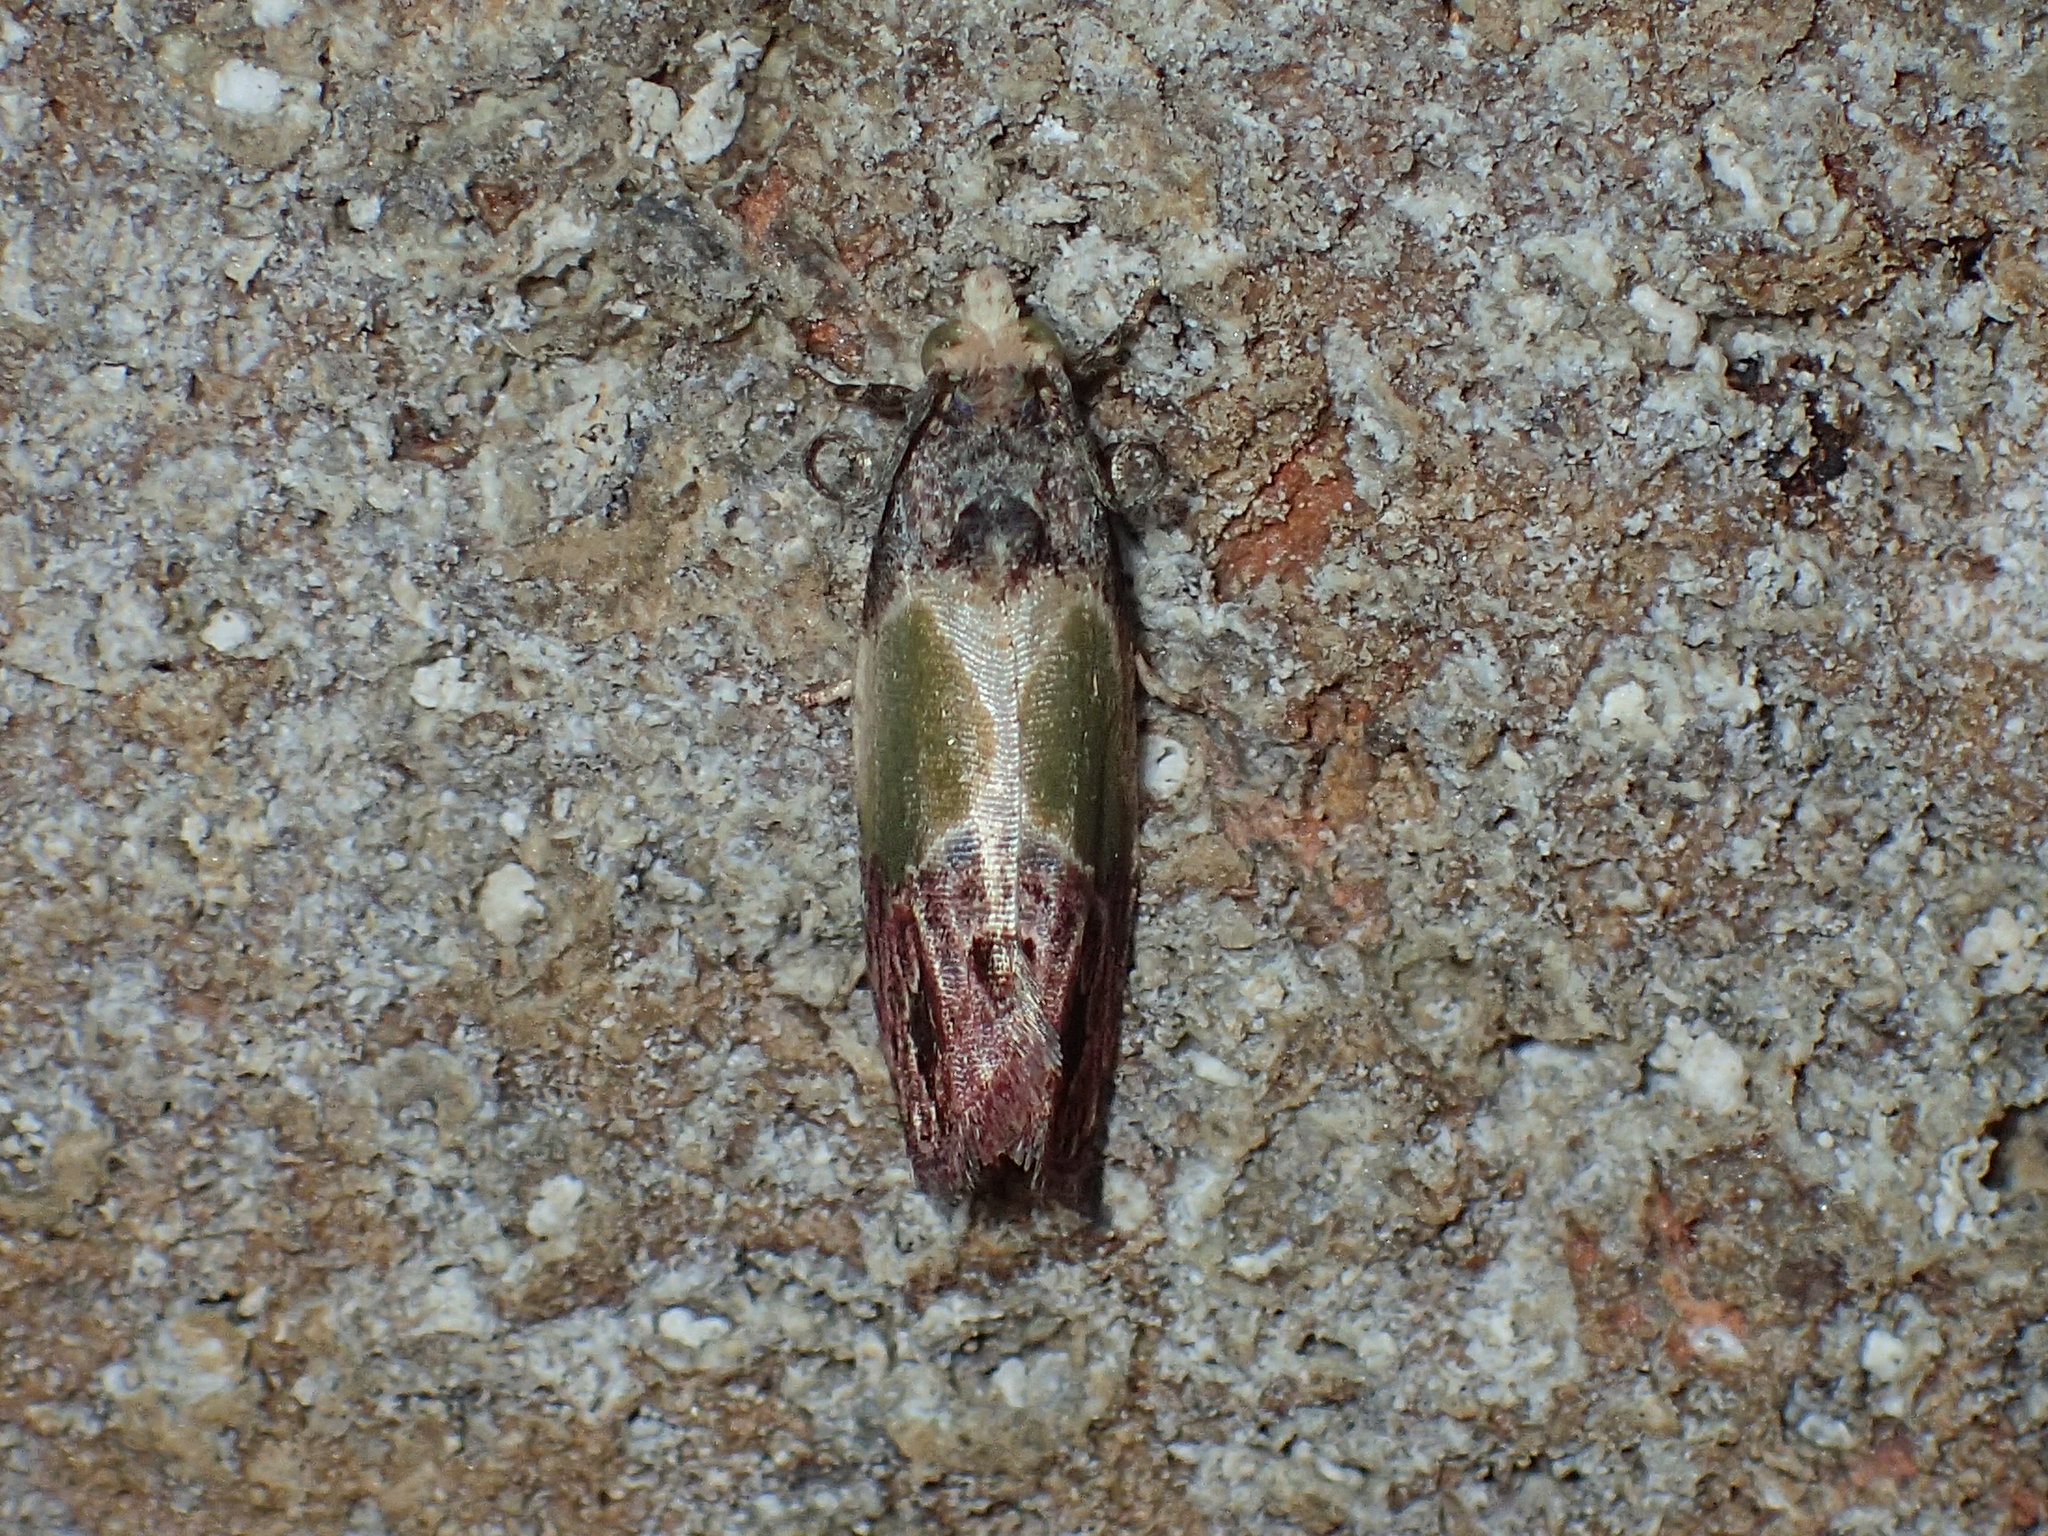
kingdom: Animalia
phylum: Arthropoda
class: Insecta
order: Lepidoptera
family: Tortricidae
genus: Eumarozia
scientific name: Eumarozia malachitana
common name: Sculptured moth
